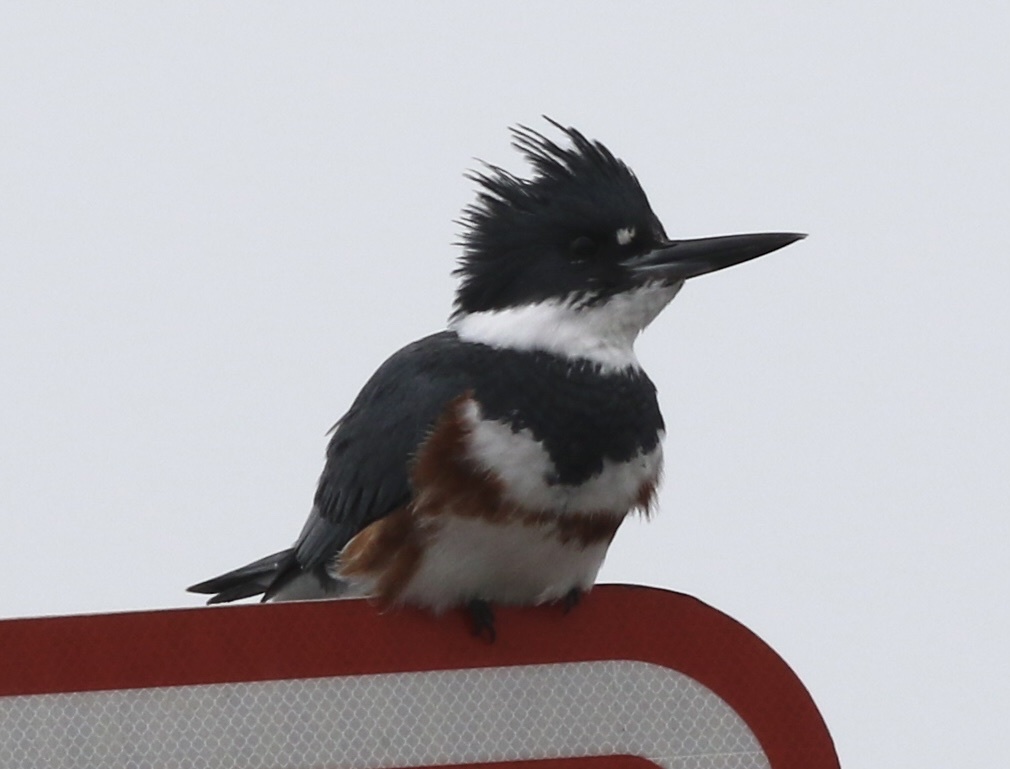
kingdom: Animalia
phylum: Chordata
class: Aves
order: Coraciiformes
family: Alcedinidae
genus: Megaceryle
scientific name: Megaceryle alcyon
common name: Belted kingfisher
